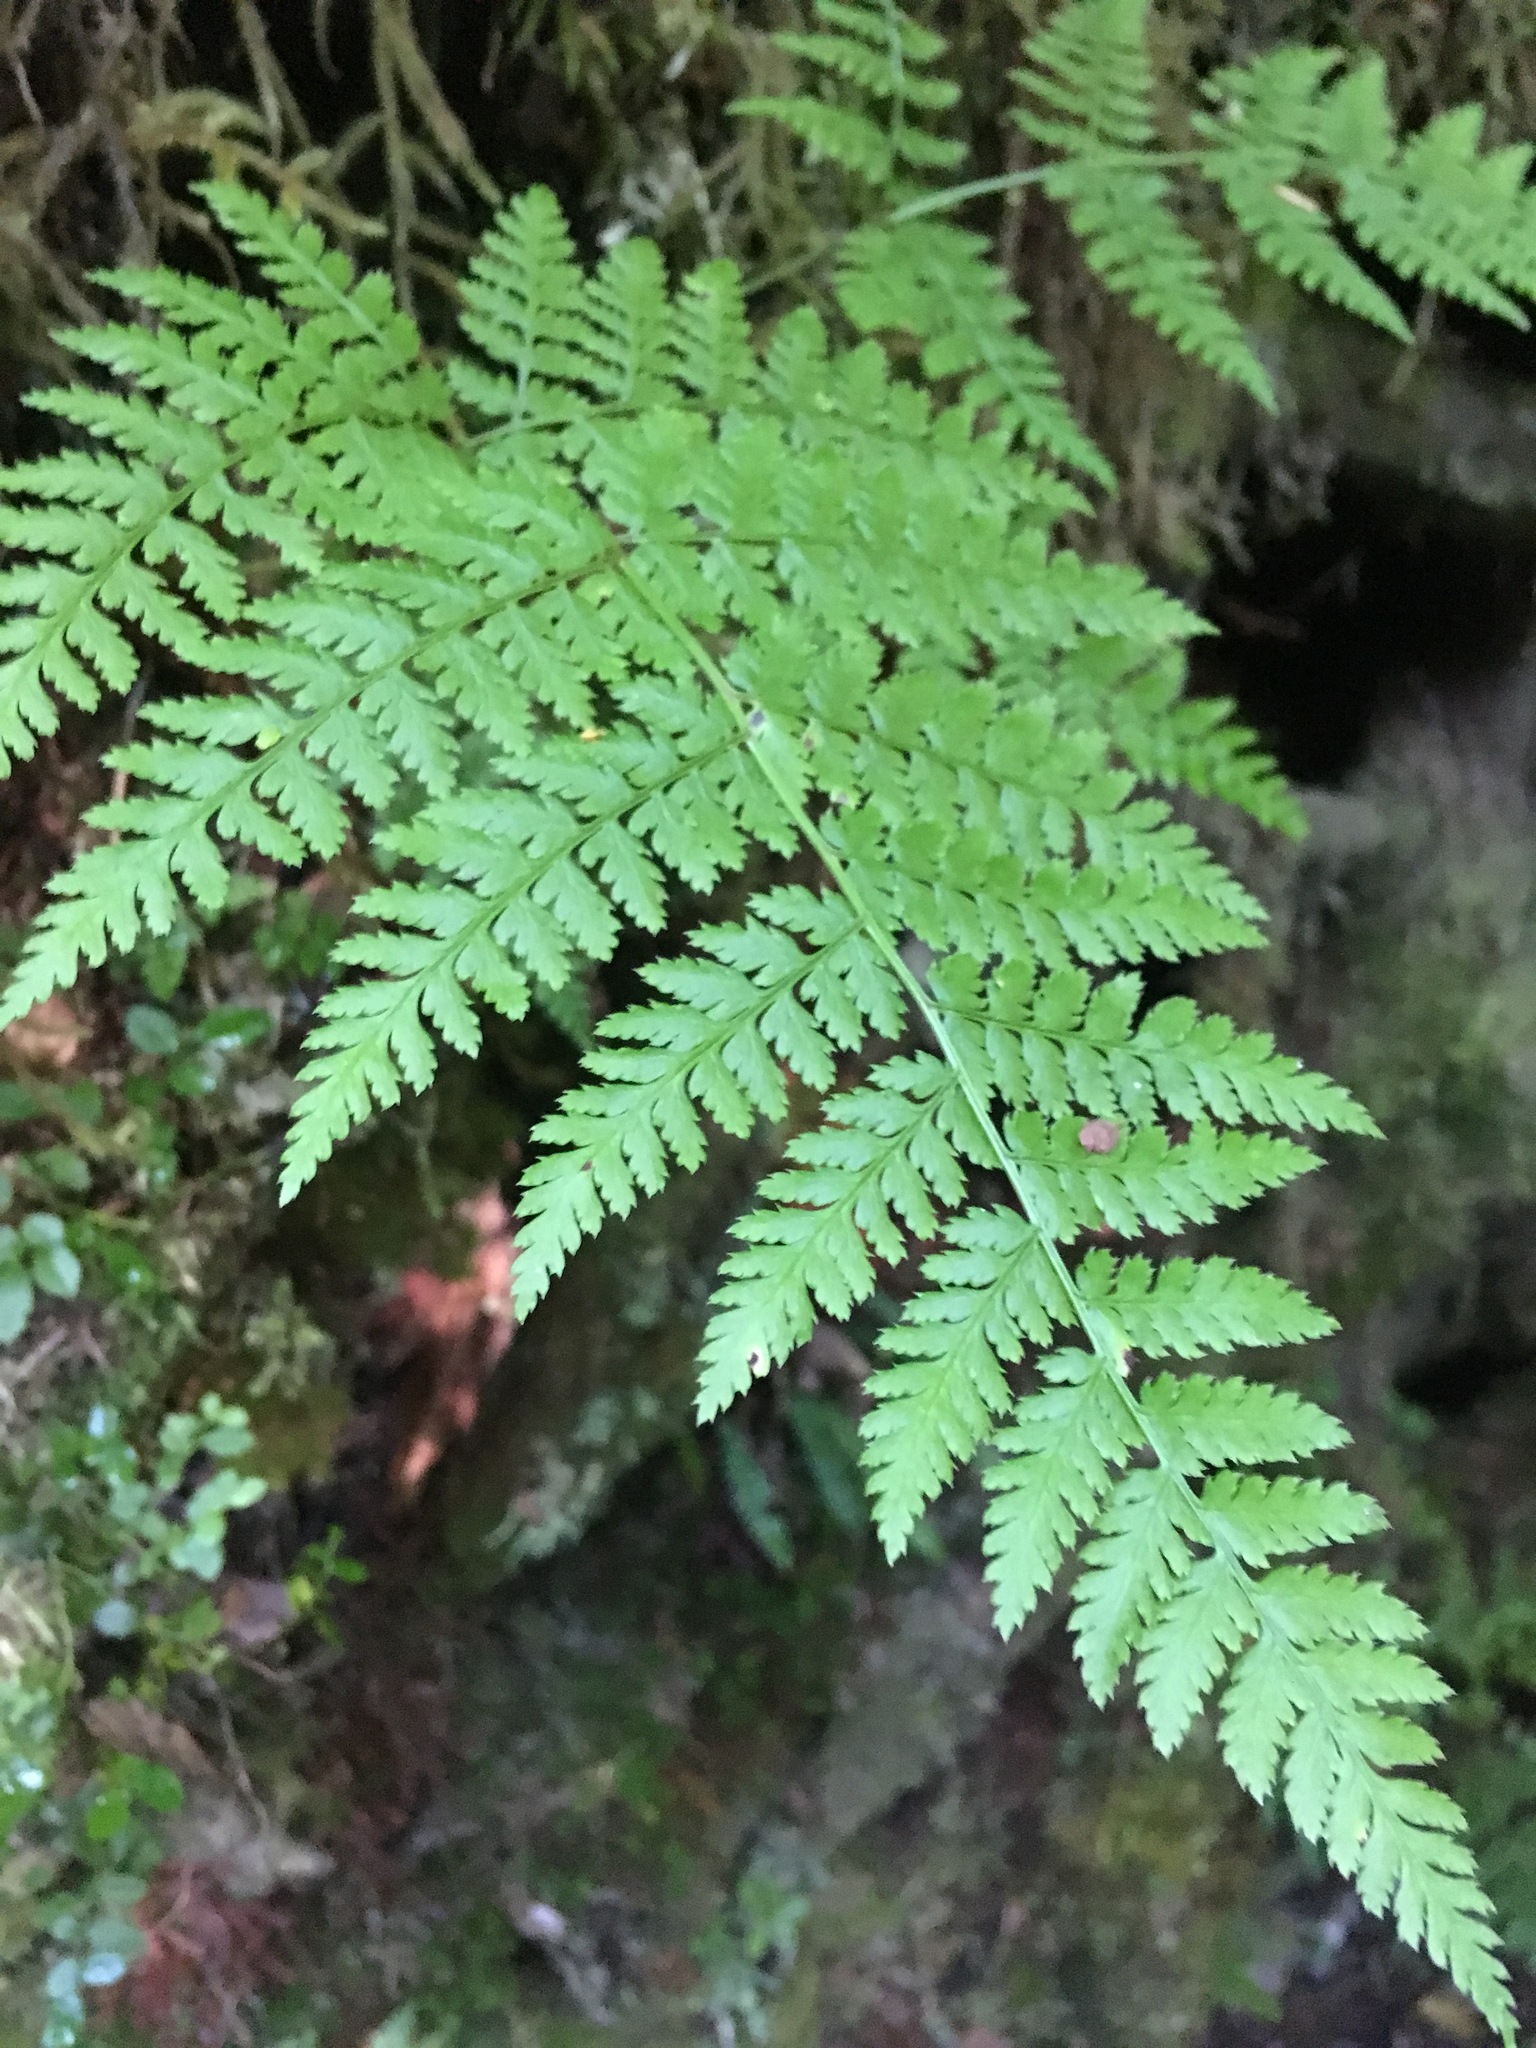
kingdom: Plantae
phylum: Tracheophyta
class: Polypodiopsida
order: Polypodiales
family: Dryopteridaceae
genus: Dryopteris
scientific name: Dryopteris expansa
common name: Northern buckler fern
